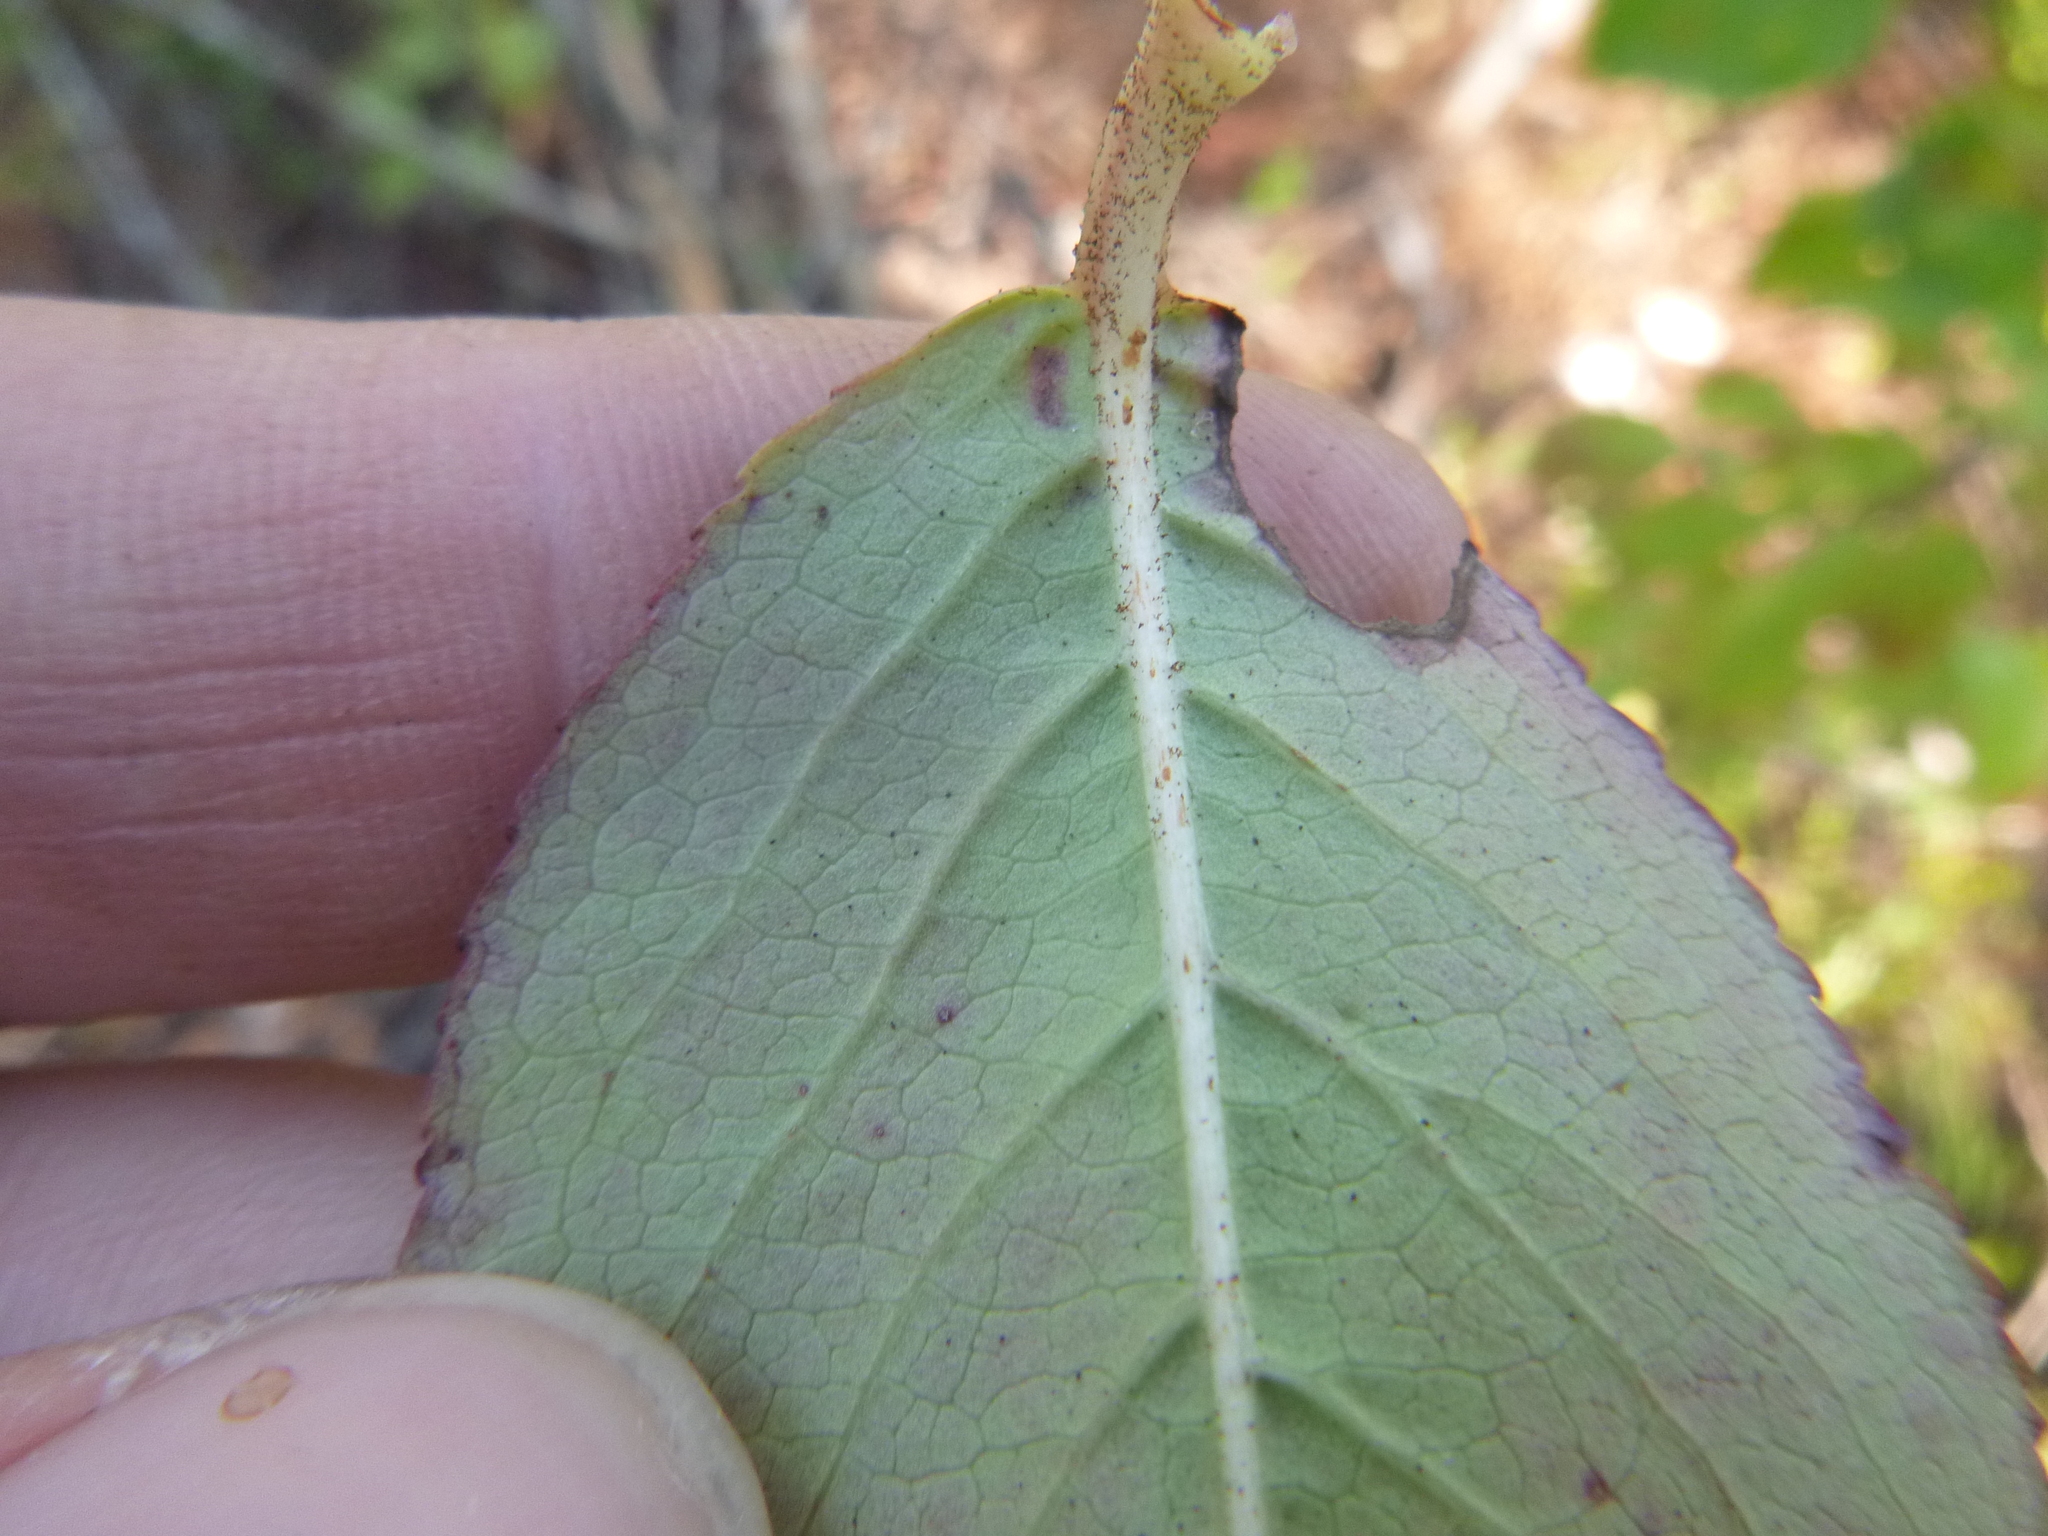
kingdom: Plantae
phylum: Tracheophyta
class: Magnoliopsida
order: Dipsacales
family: Viburnaceae
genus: Viburnum
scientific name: Viburnum rufidulum
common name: Blue haw
